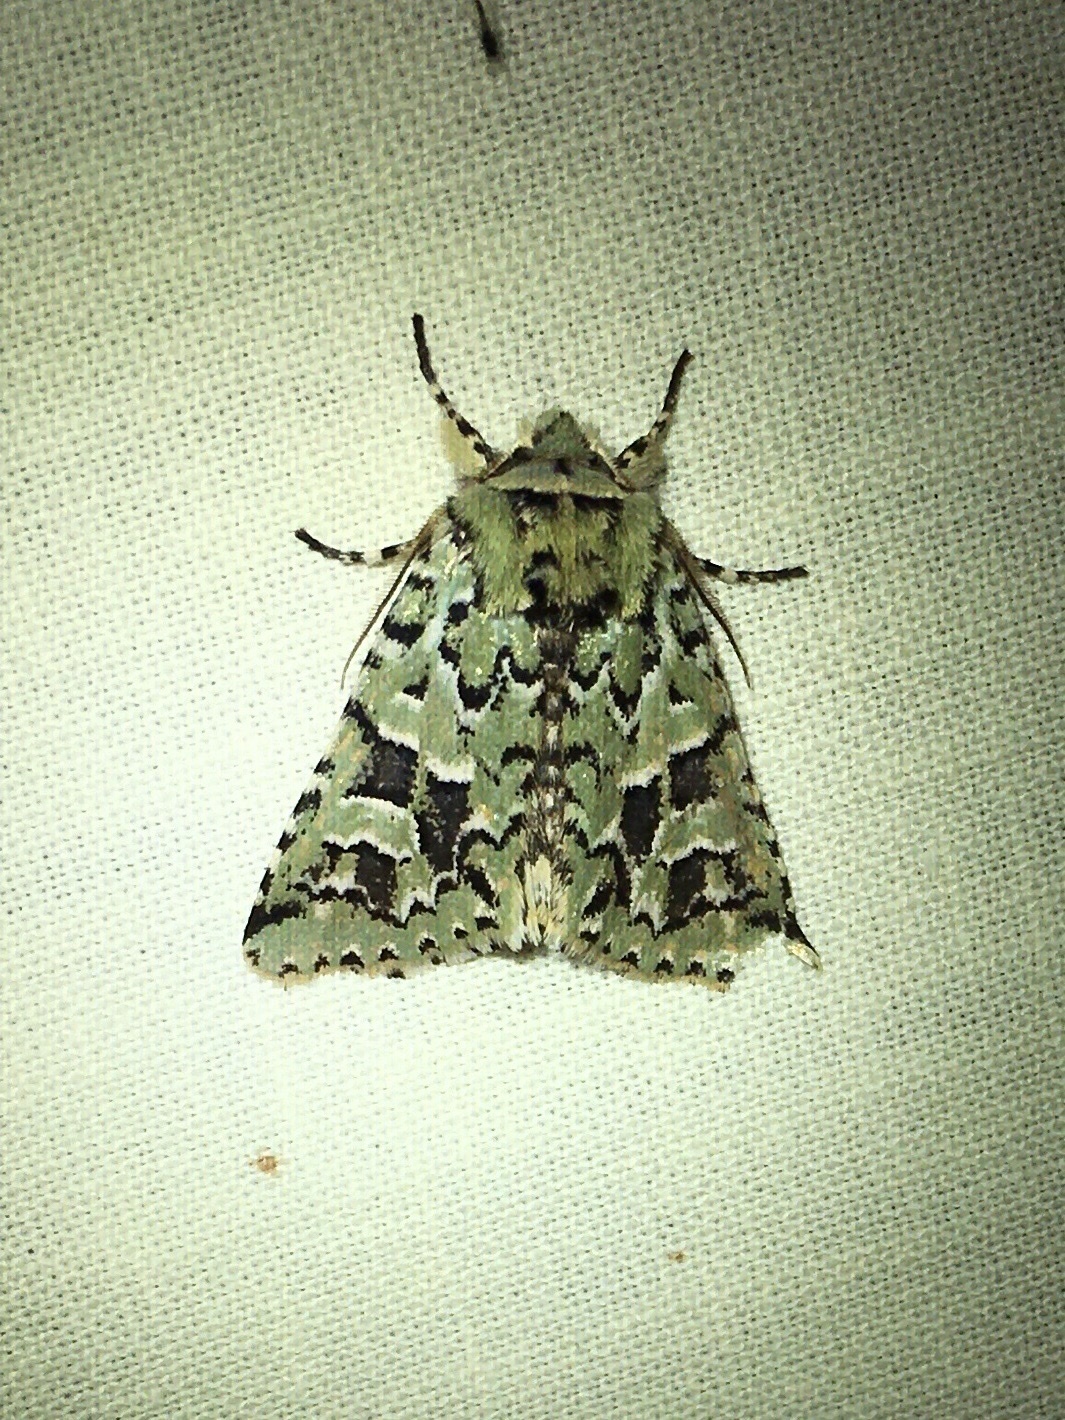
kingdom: Animalia
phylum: Arthropoda
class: Insecta
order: Lepidoptera
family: Noctuidae
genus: Feralia
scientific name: Feralia comstocki
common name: Comstock's sallow
